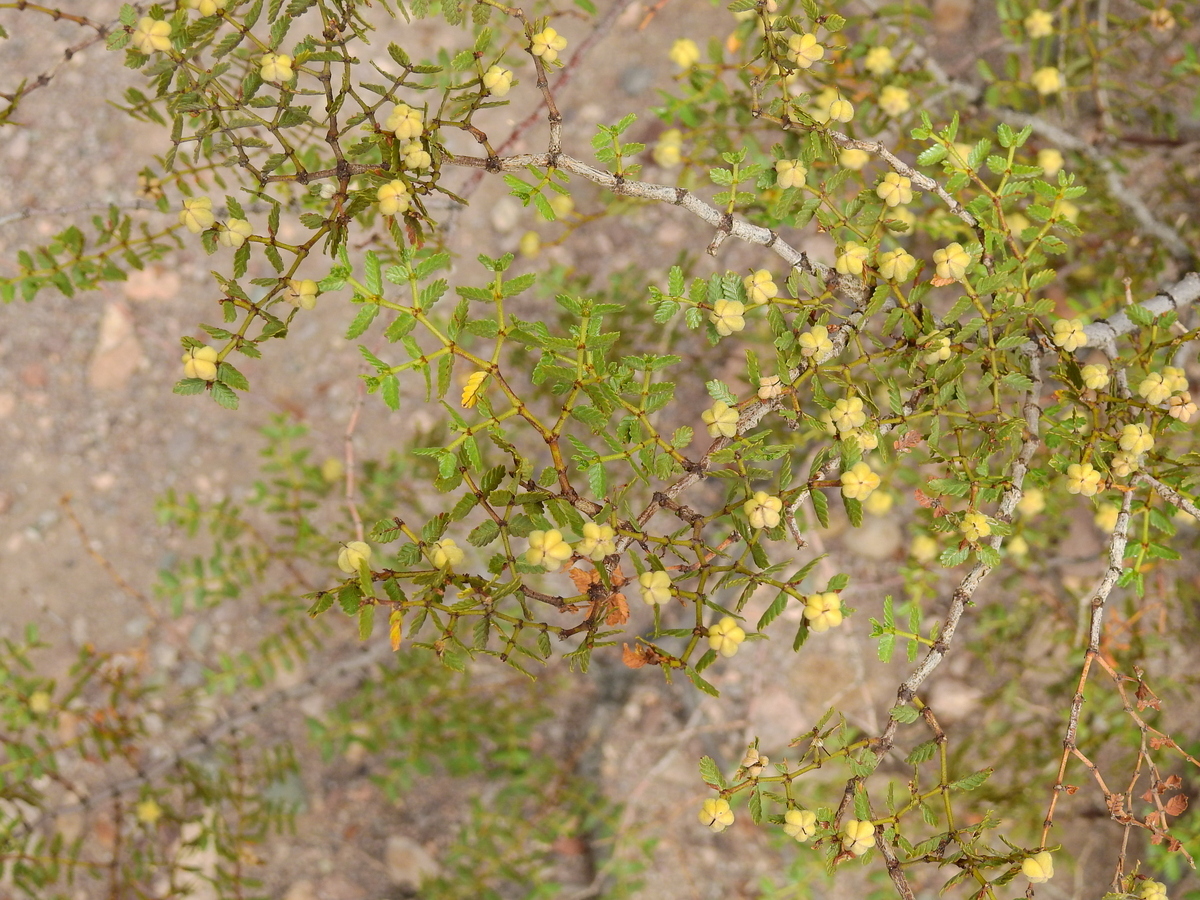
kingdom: Plantae
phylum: Tracheophyta
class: Magnoliopsida
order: Zygophyllales
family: Zygophyllaceae
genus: Larrea
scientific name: Larrea nitida
